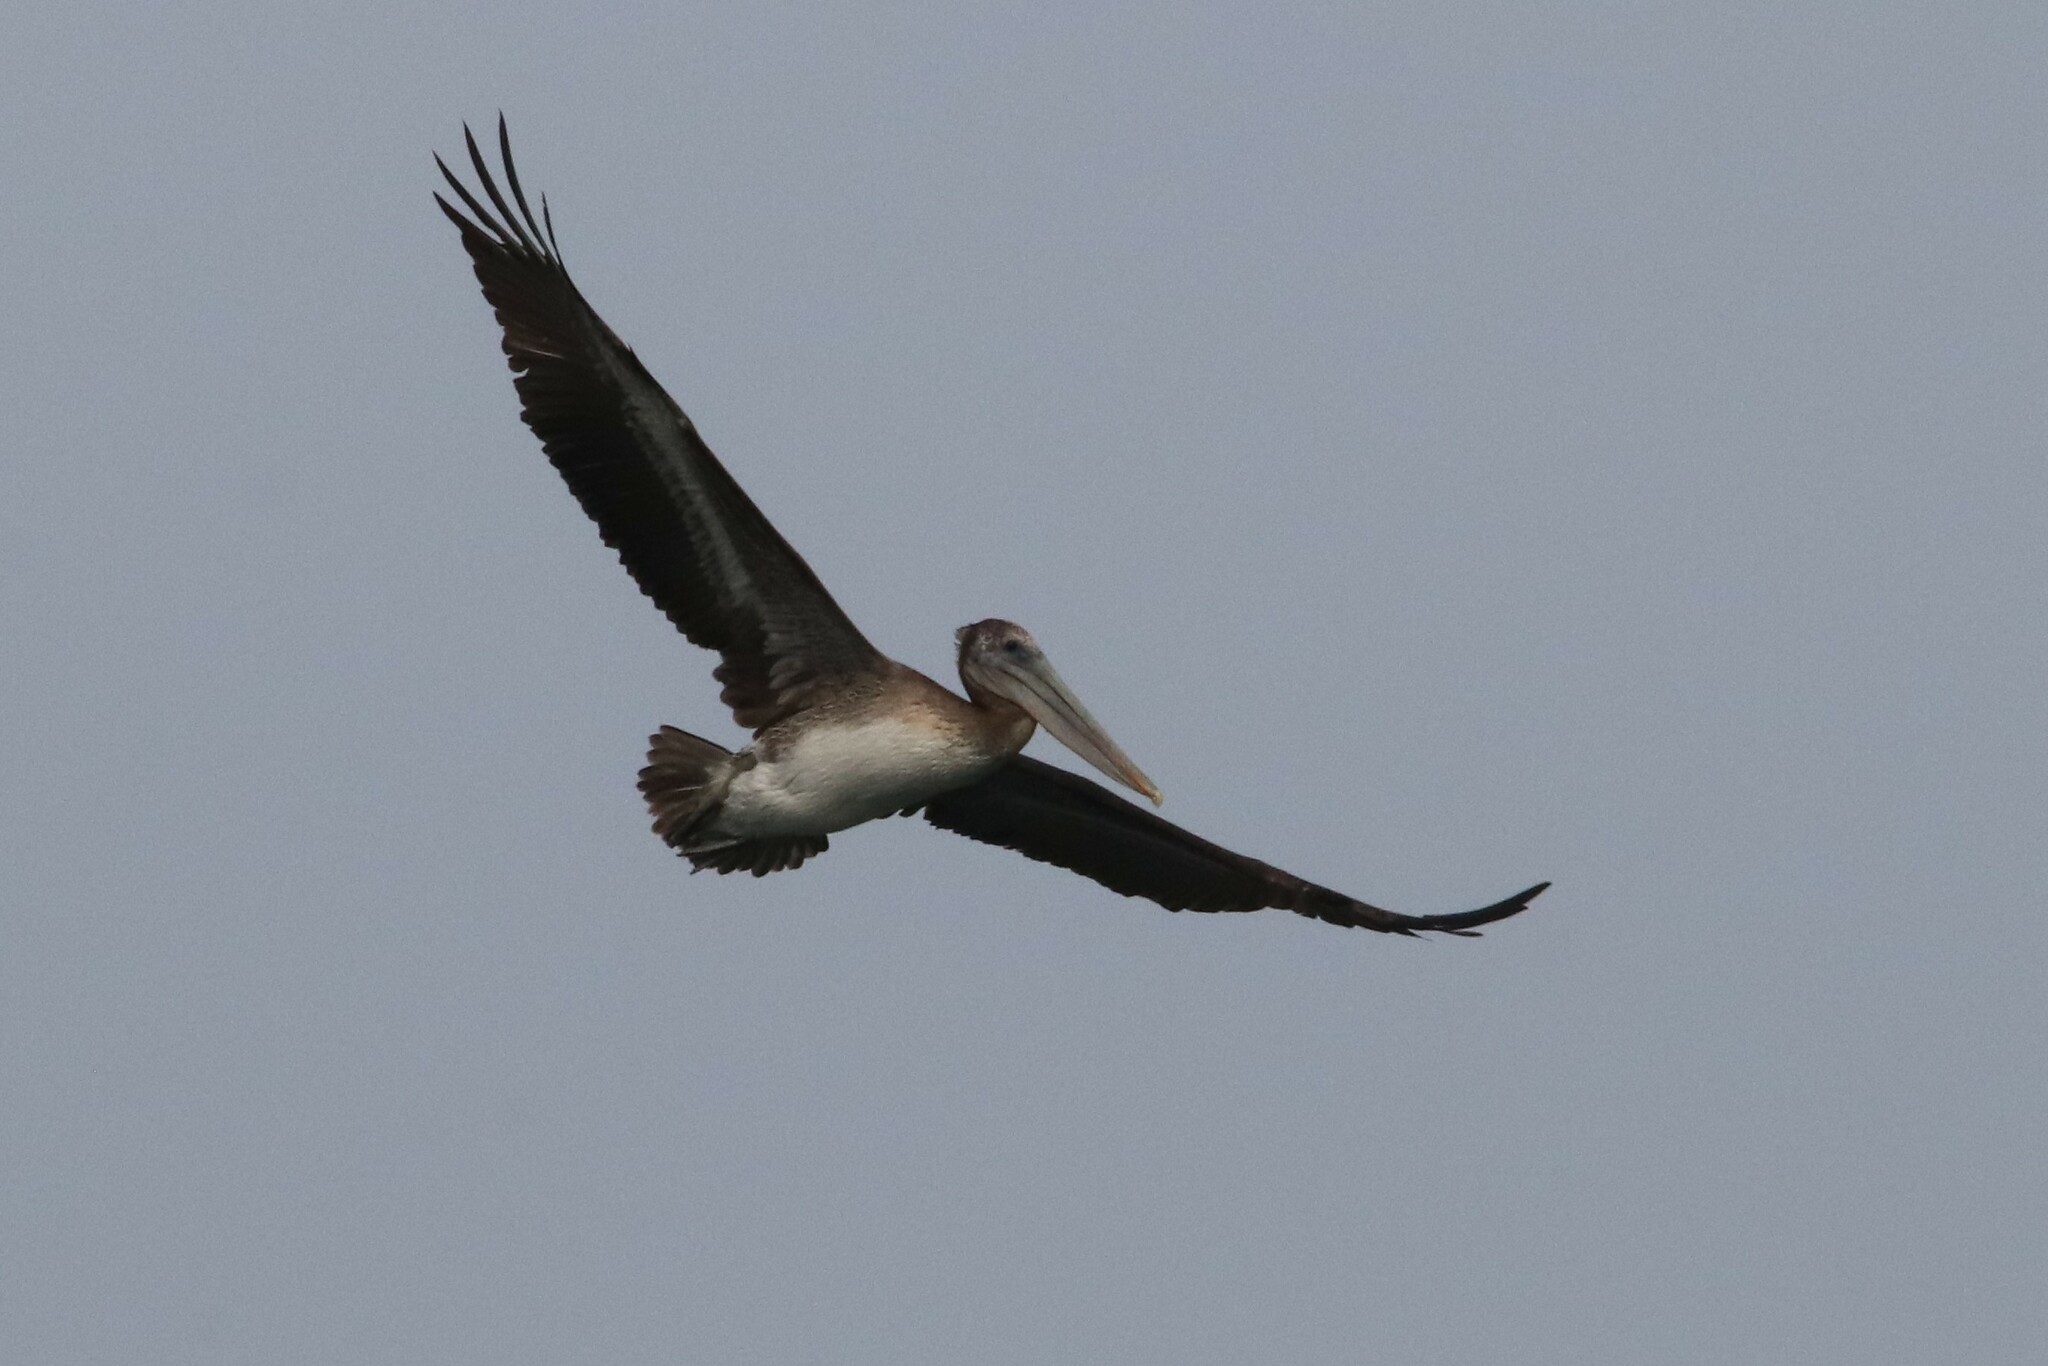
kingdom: Animalia
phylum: Chordata
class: Aves
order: Pelecaniformes
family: Pelecanidae
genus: Pelecanus
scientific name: Pelecanus occidentalis
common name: Brown pelican
